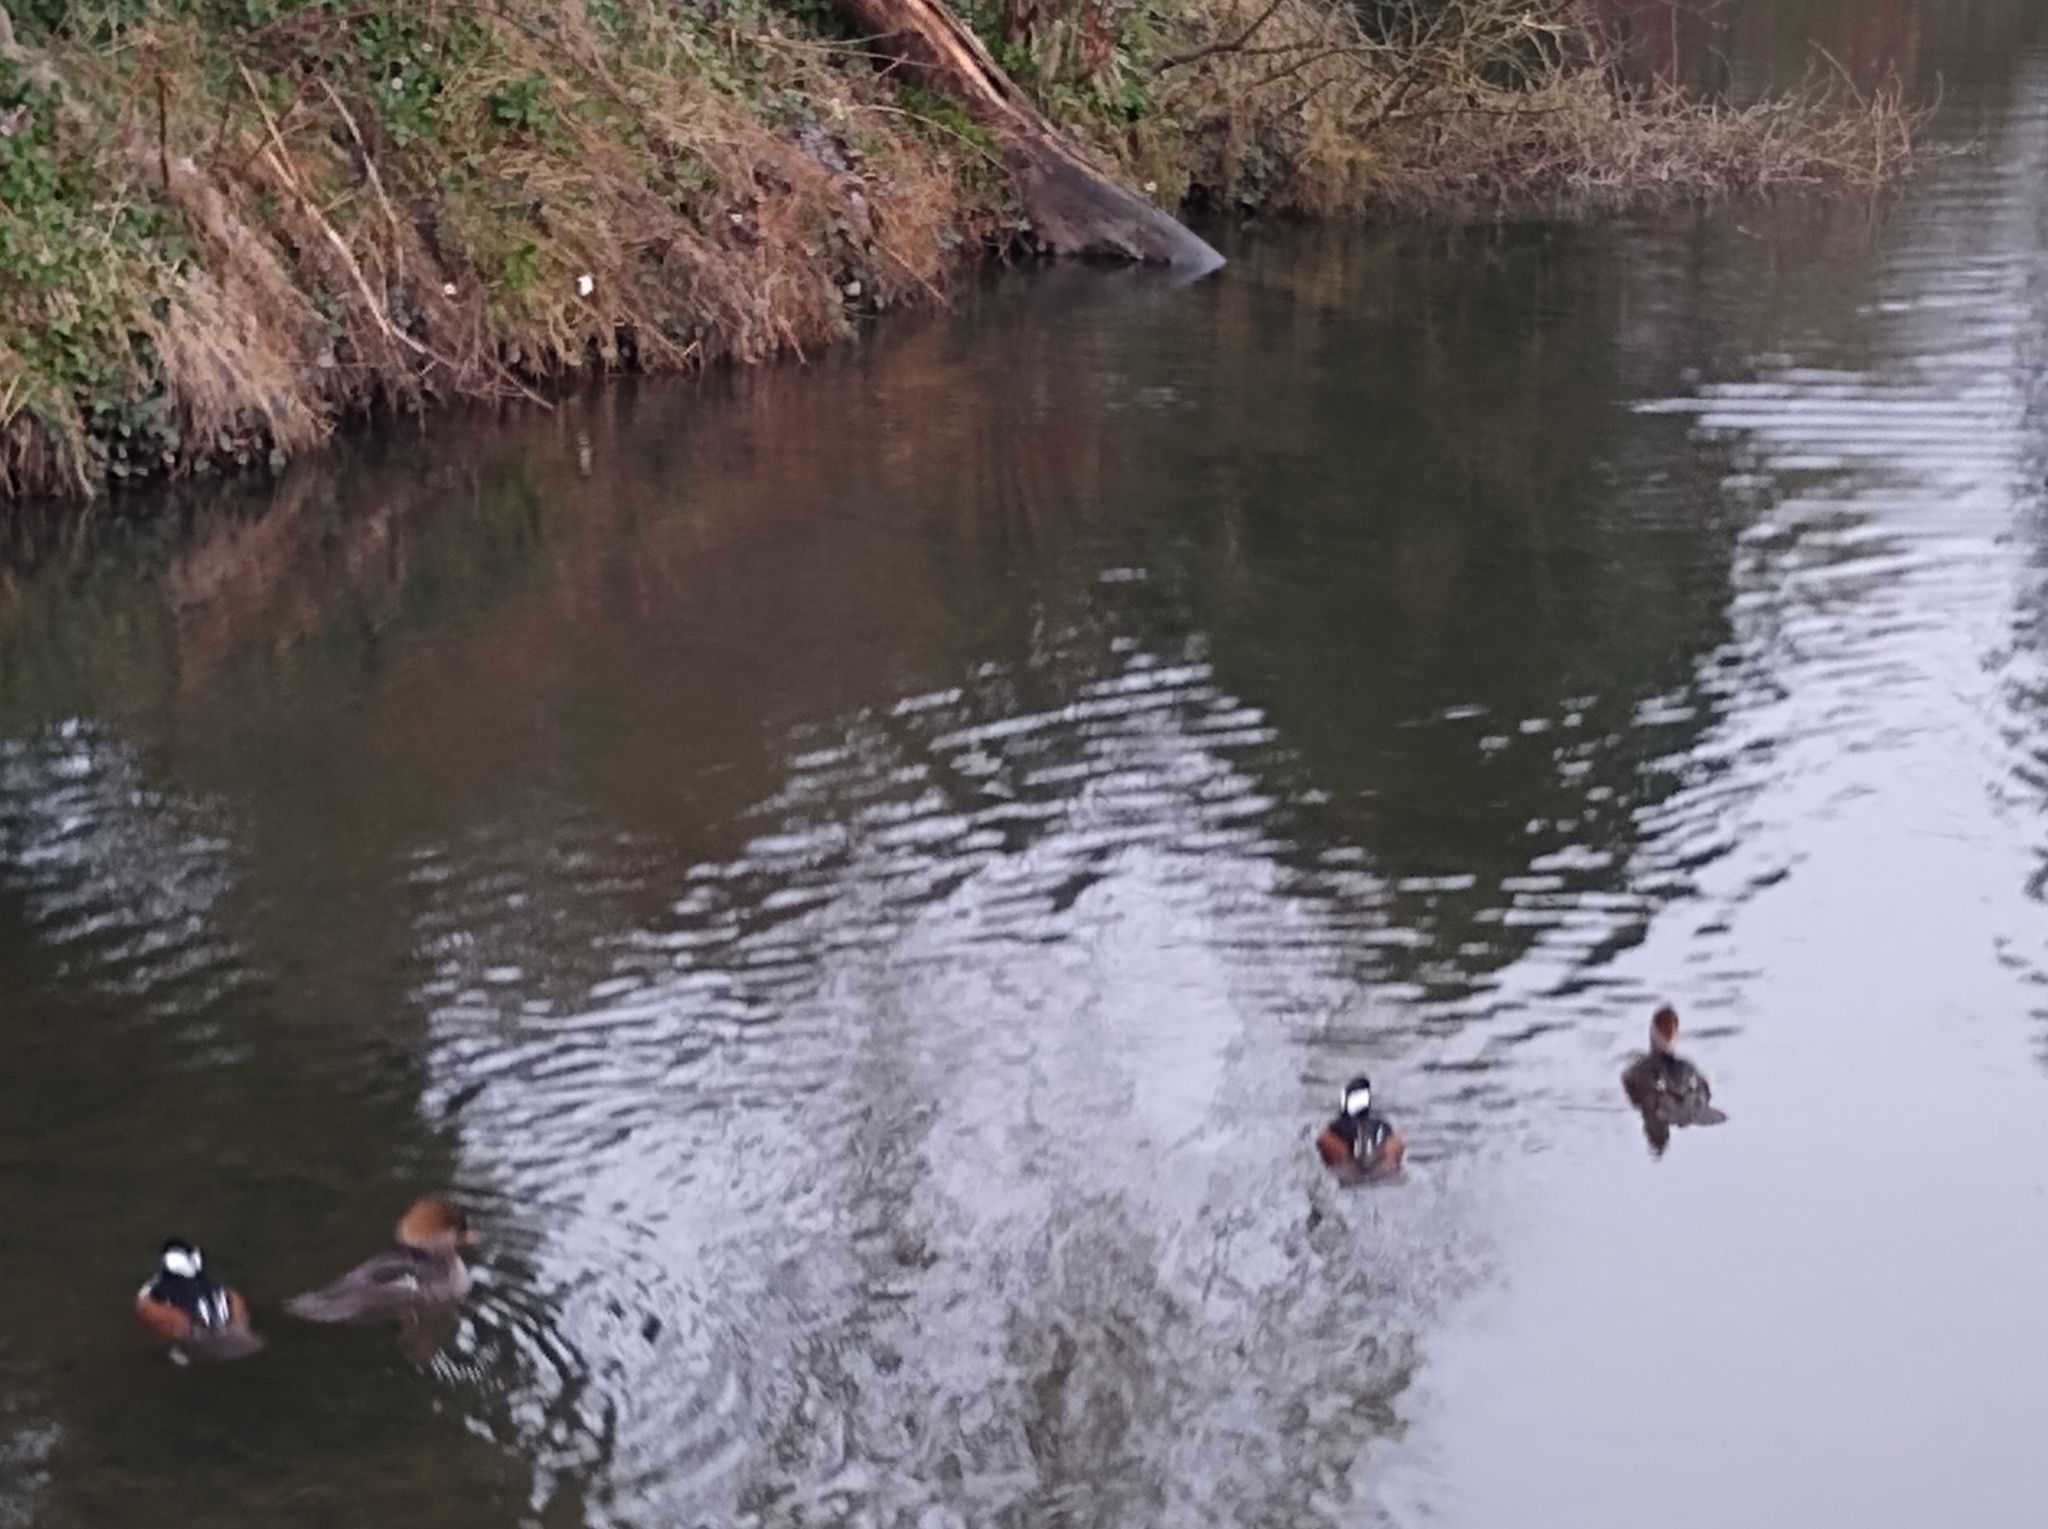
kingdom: Animalia
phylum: Chordata
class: Aves
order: Anseriformes
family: Anatidae
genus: Lophodytes
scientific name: Lophodytes cucullatus
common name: Hooded merganser
